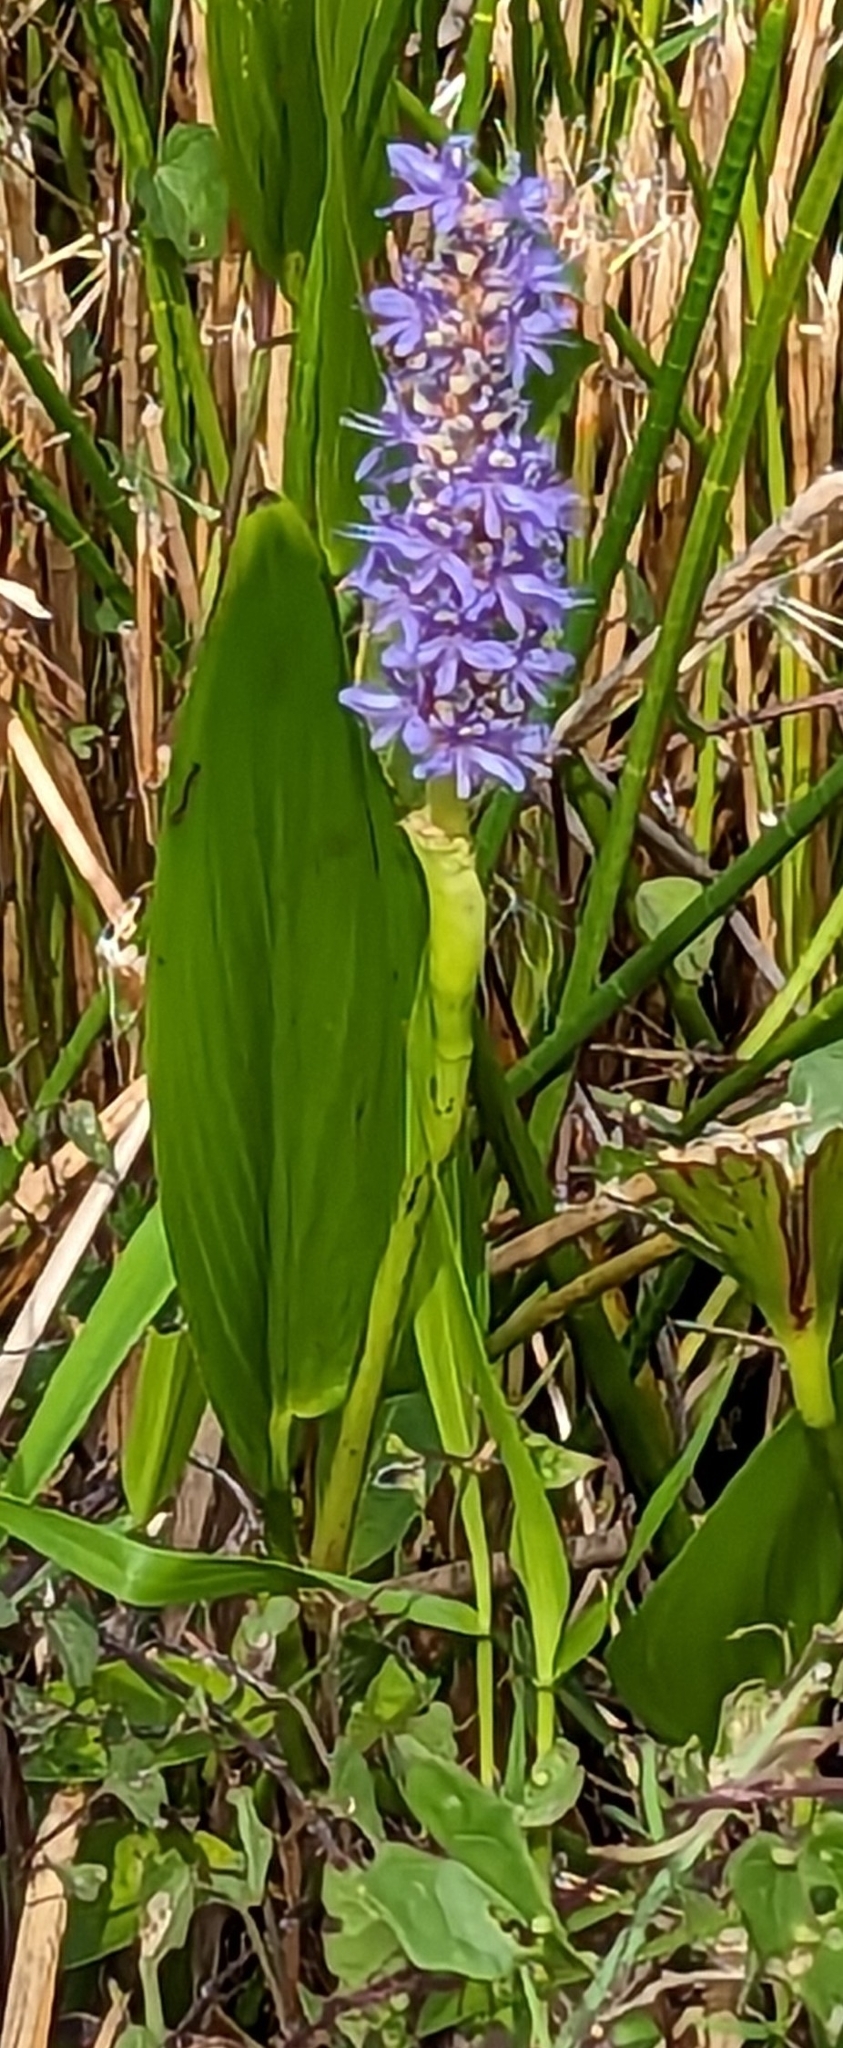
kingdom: Plantae
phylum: Tracheophyta
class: Liliopsida
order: Commelinales
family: Pontederiaceae
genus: Pontederia
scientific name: Pontederia cordata
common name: Pickerelweed
